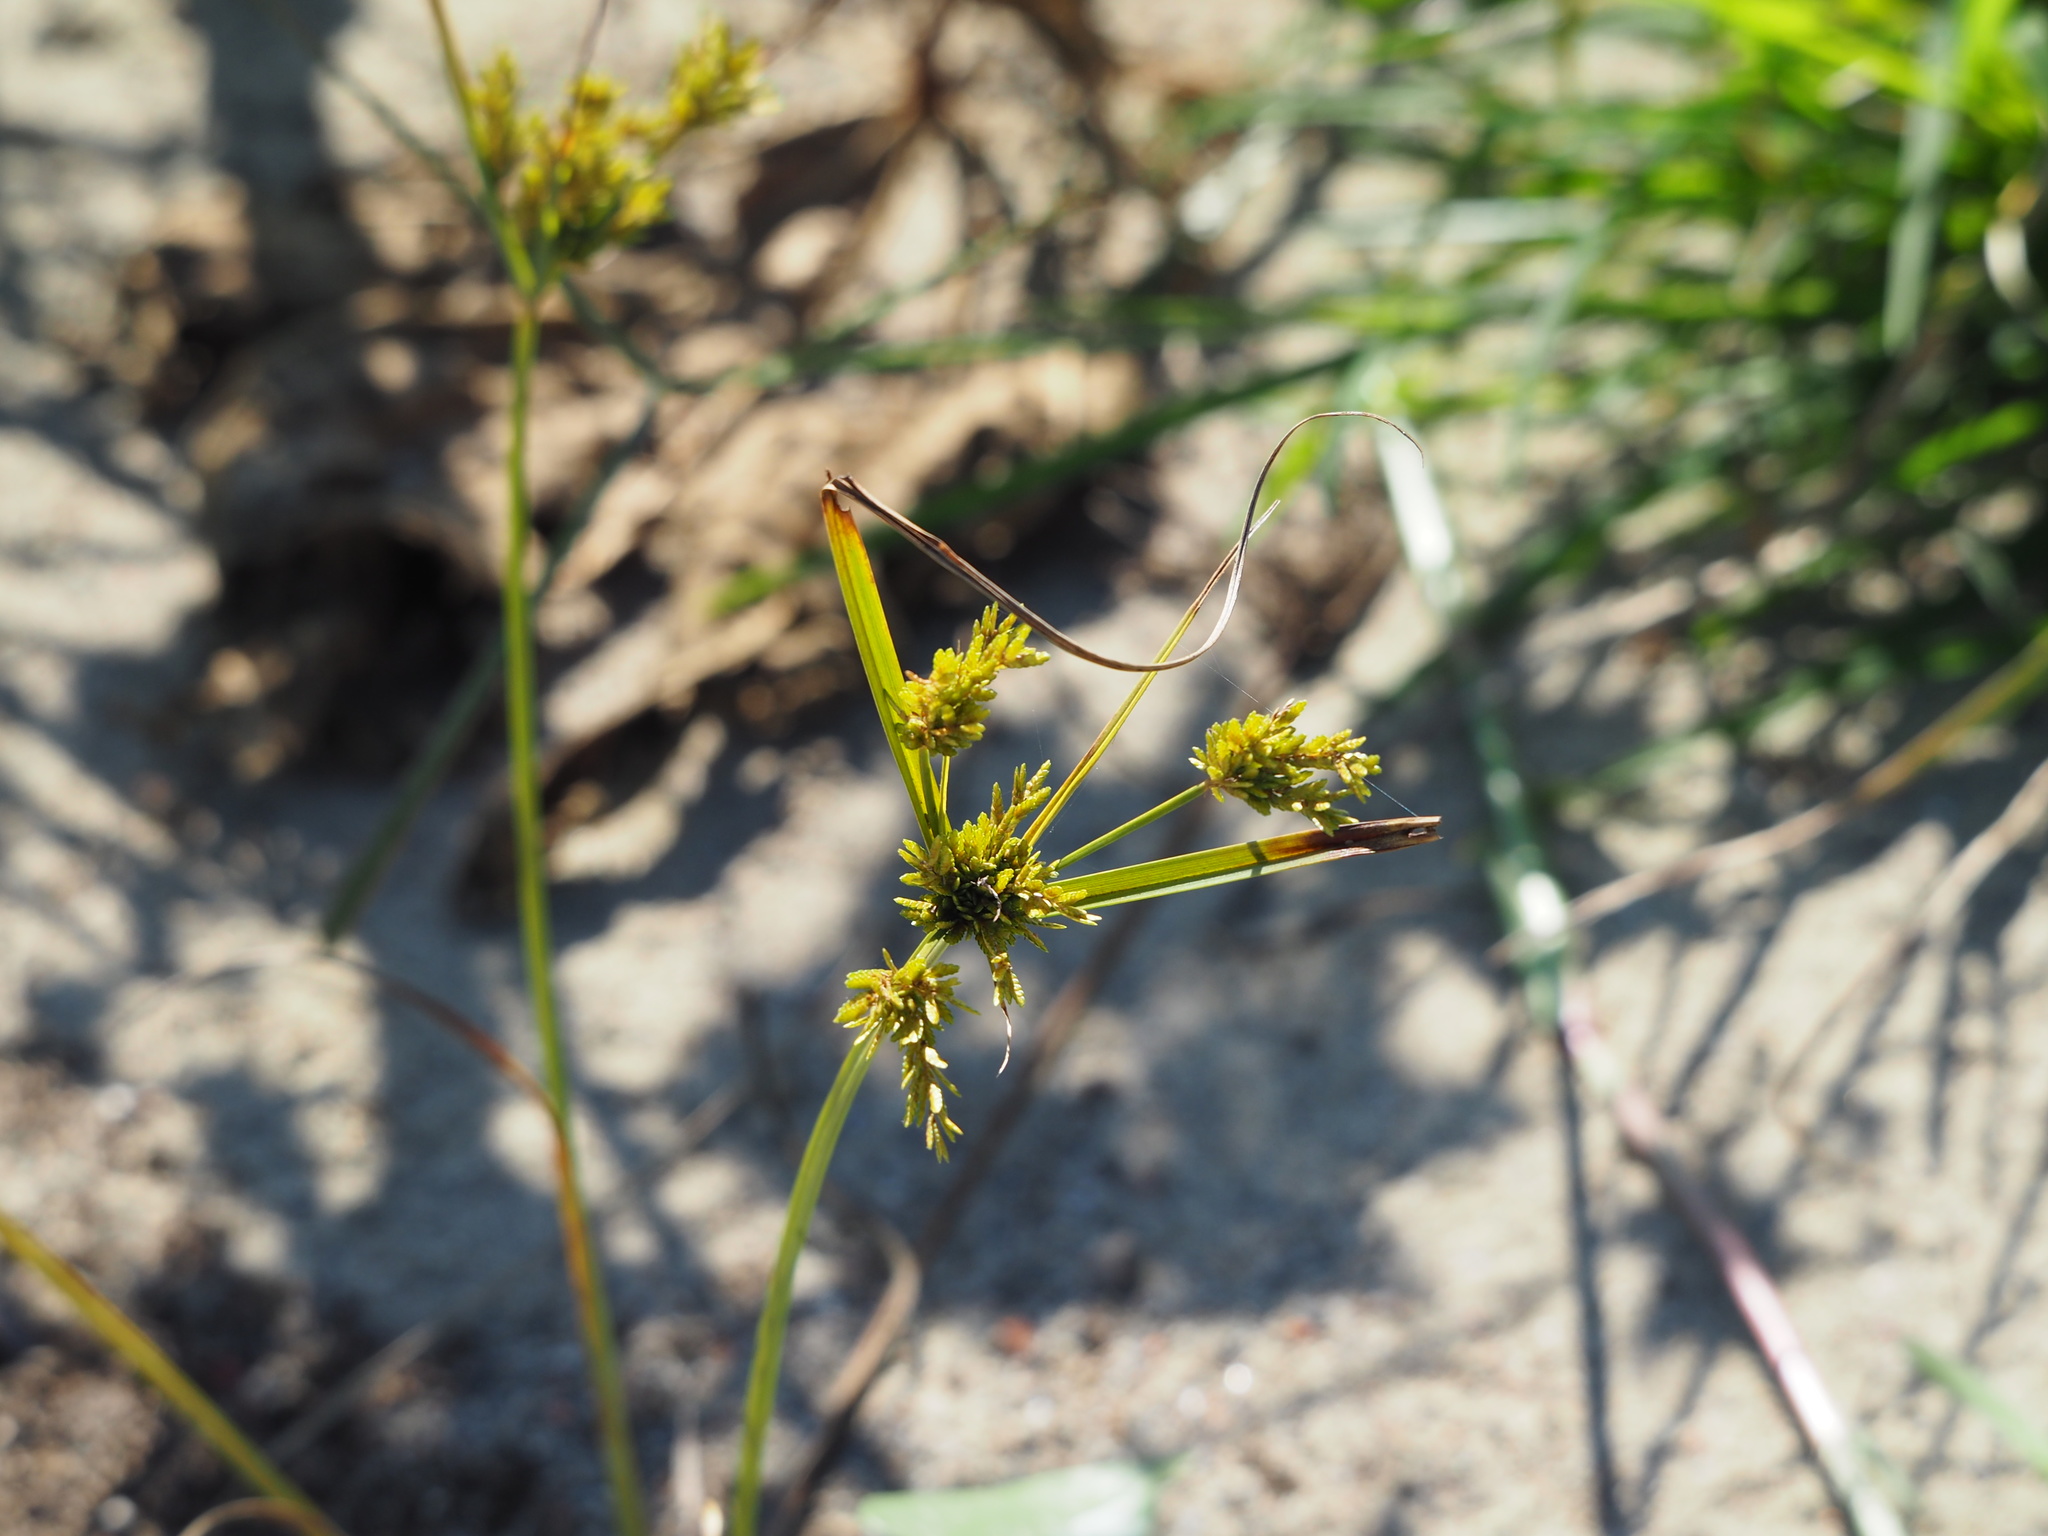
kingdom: Plantae
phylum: Tracheophyta
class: Liliopsida
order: Poales
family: Cyperaceae
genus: Cyperus
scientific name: Cyperus iria
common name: Ricefield flatsedge
